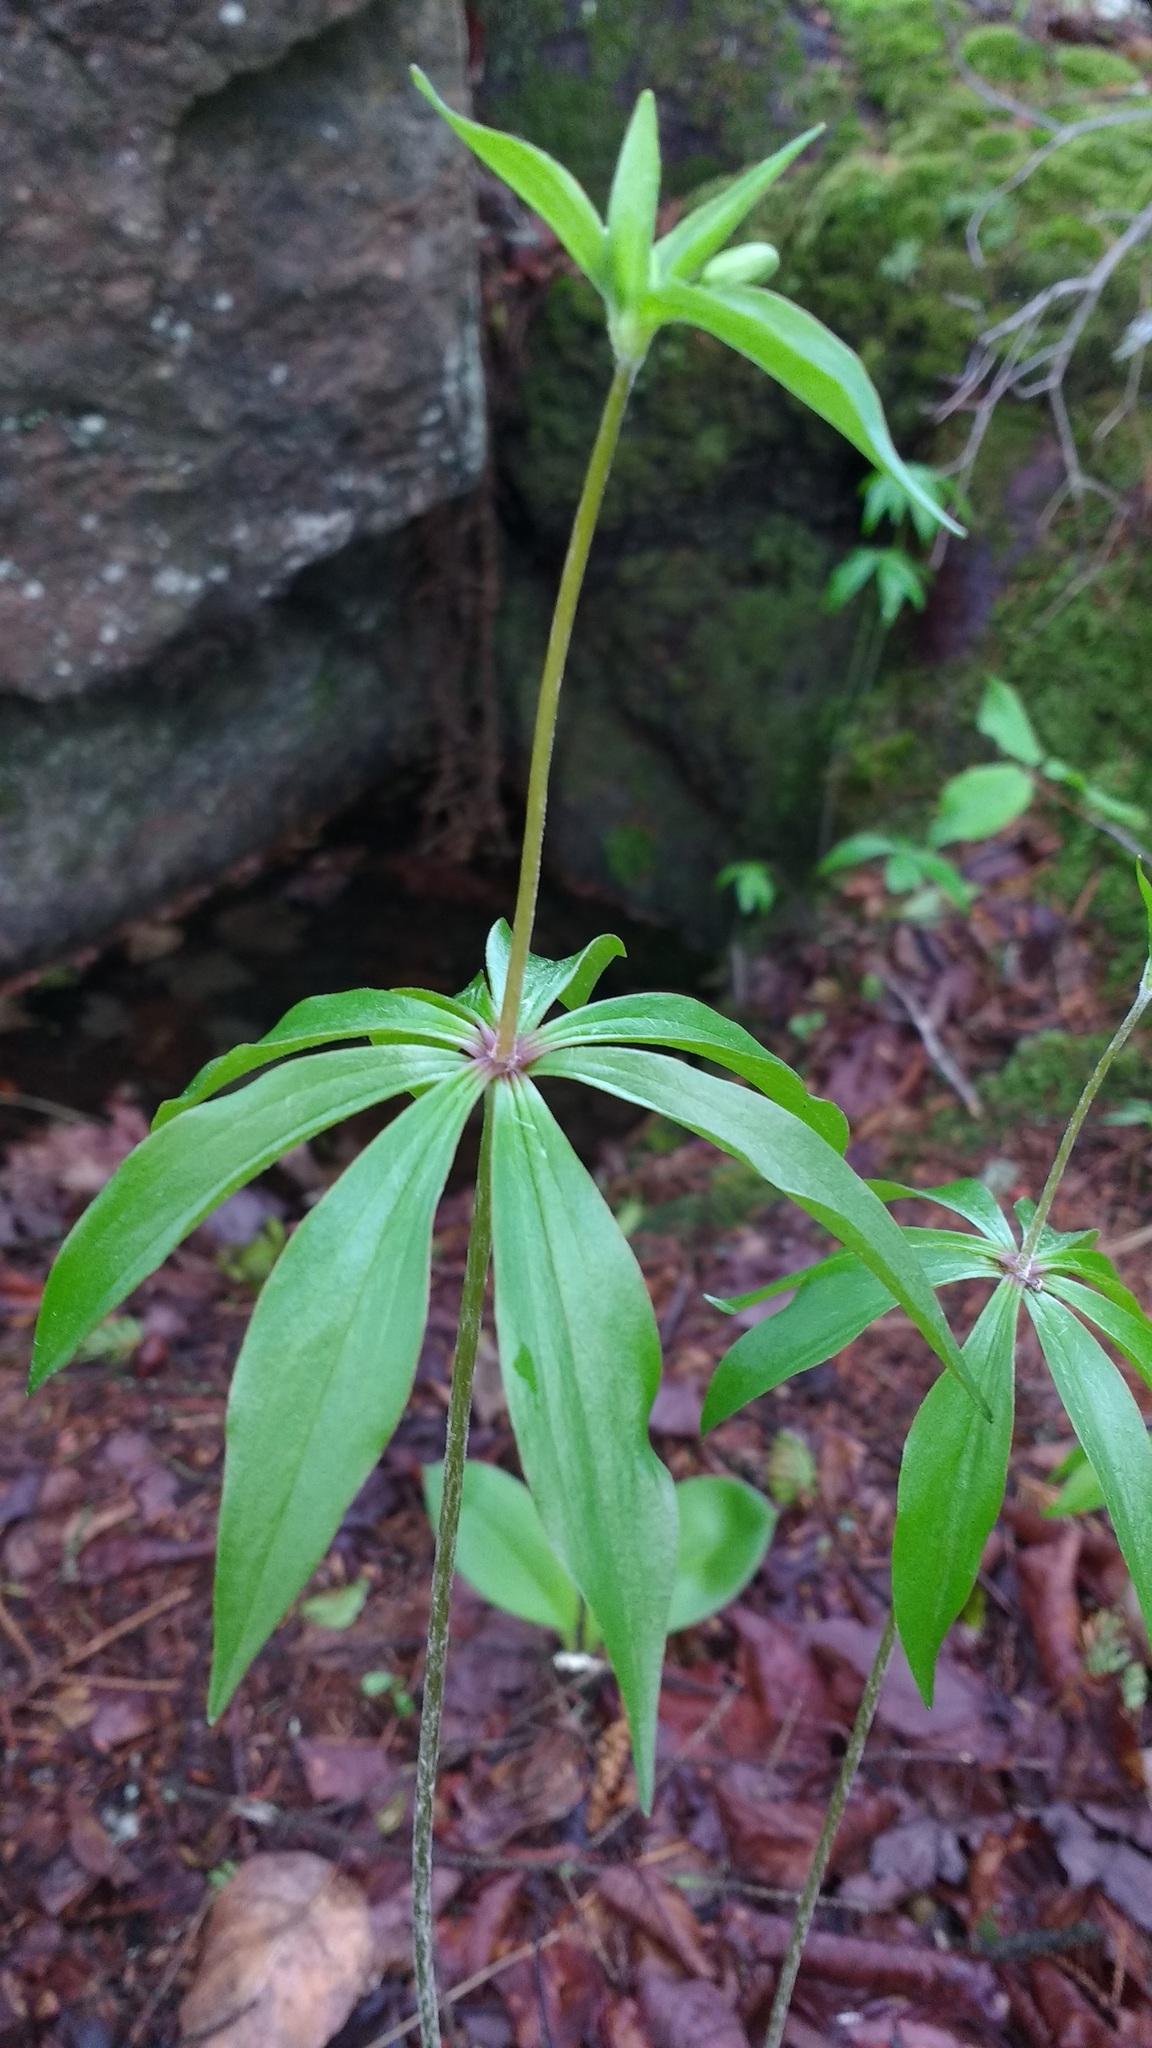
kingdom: Plantae
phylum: Tracheophyta
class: Liliopsida
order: Liliales
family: Liliaceae
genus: Medeola
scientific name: Medeola virginiana
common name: Indian cucumber-root
